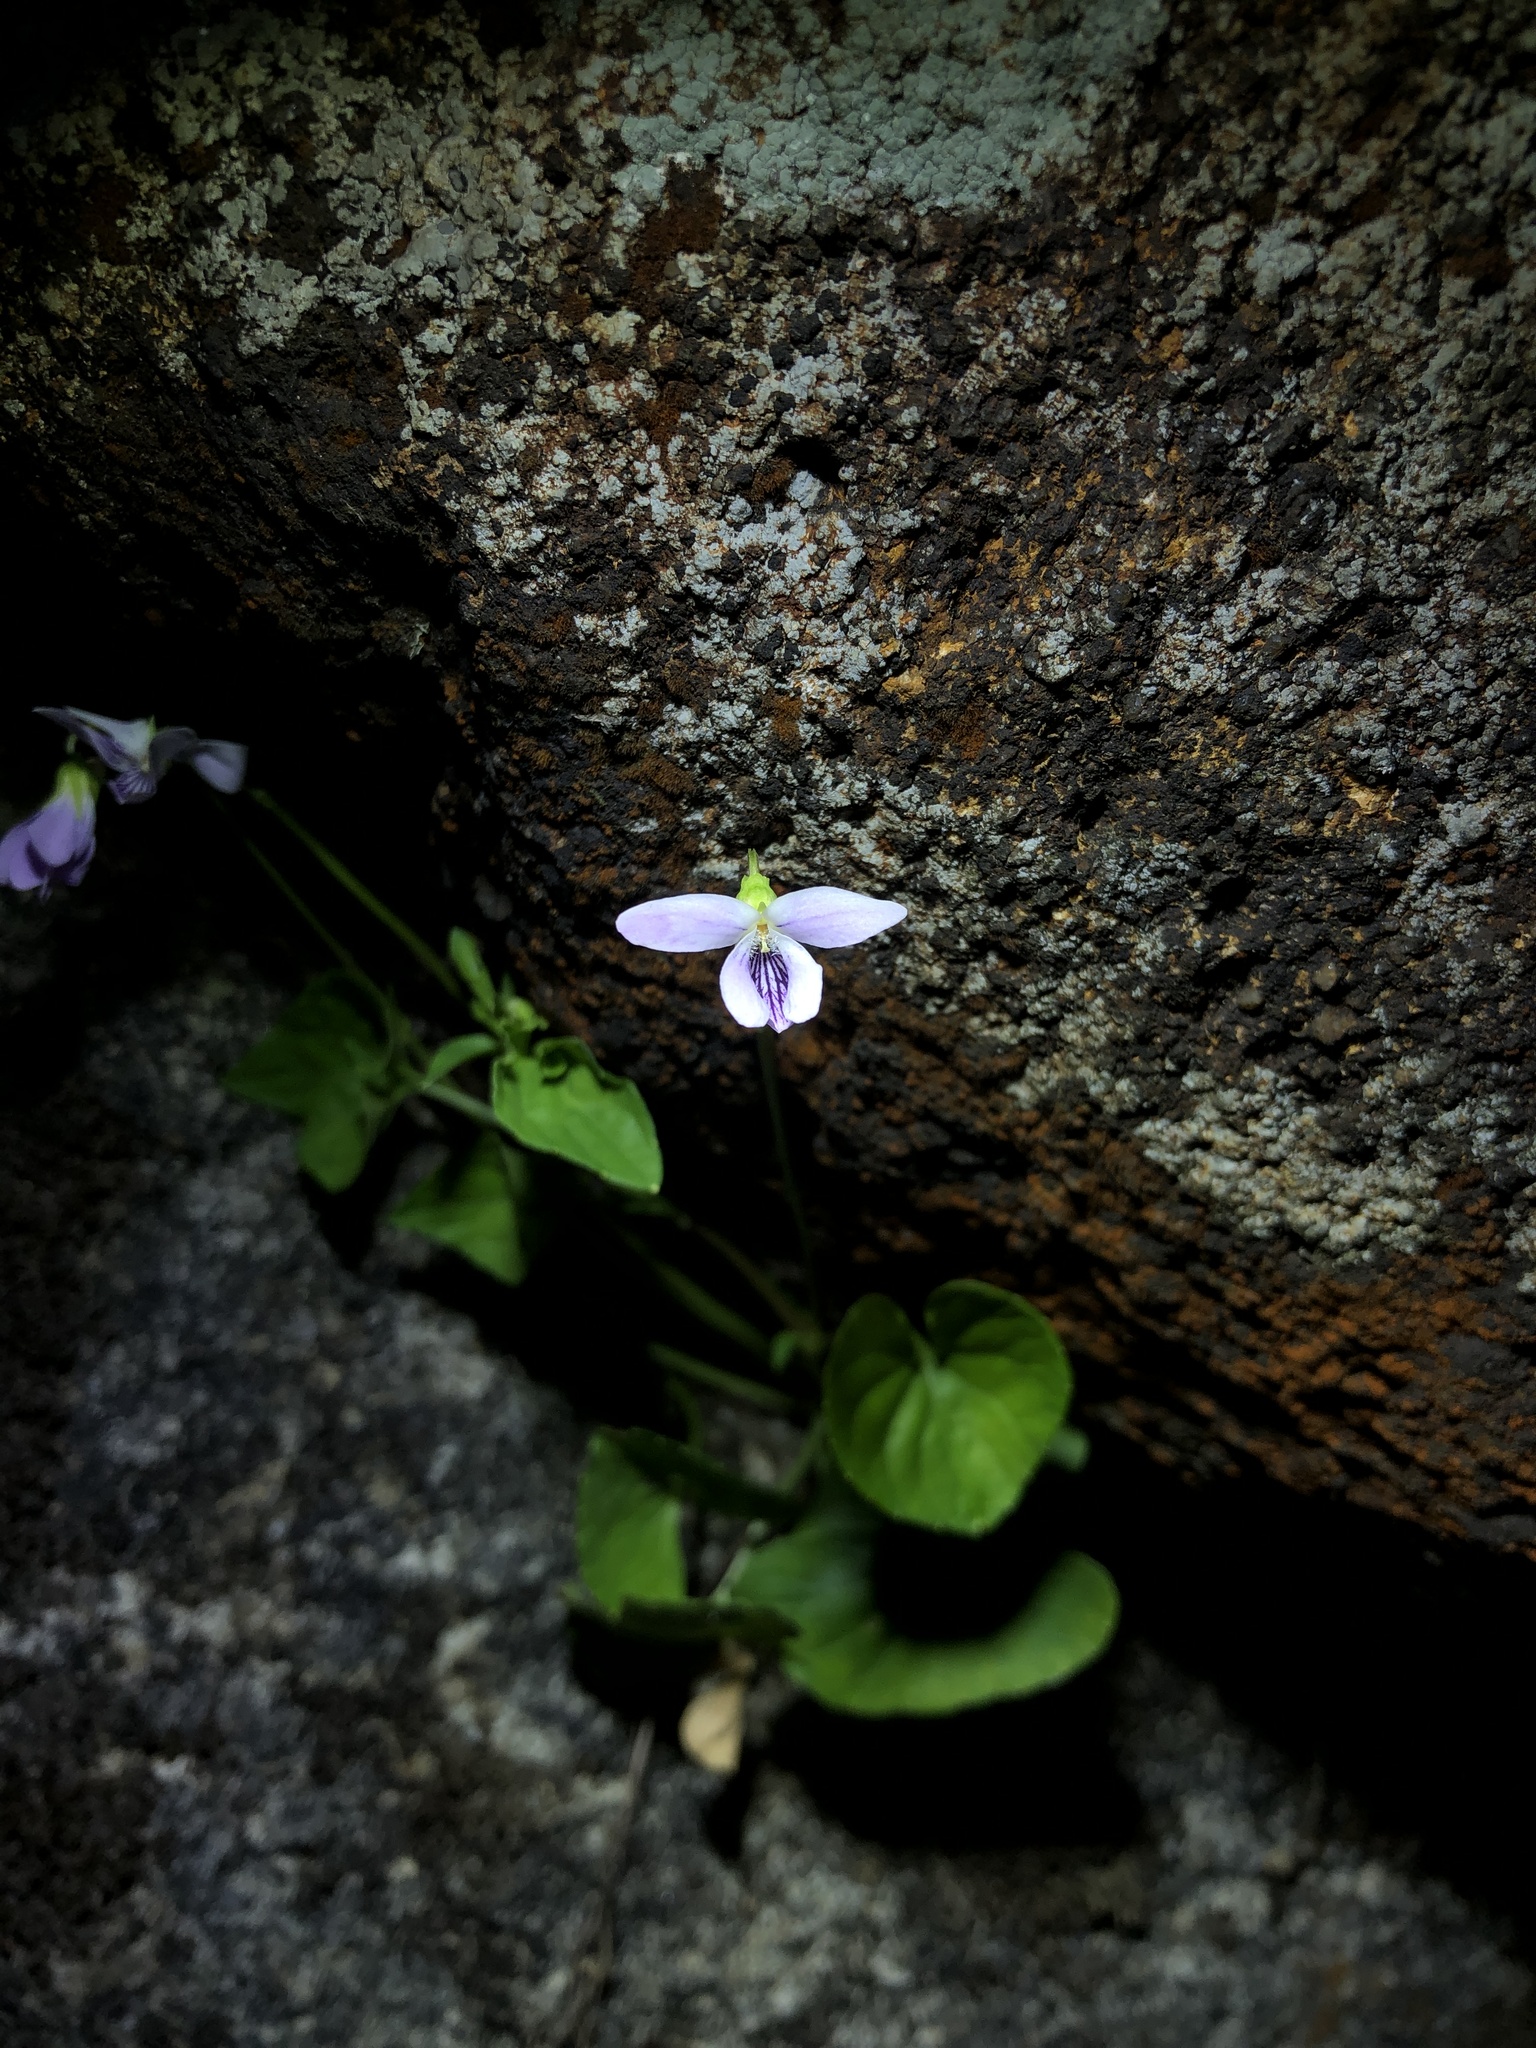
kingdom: Plantae
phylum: Tracheophyta
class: Magnoliopsida
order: Malpighiales
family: Violaceae
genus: Viola
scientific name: Viola
